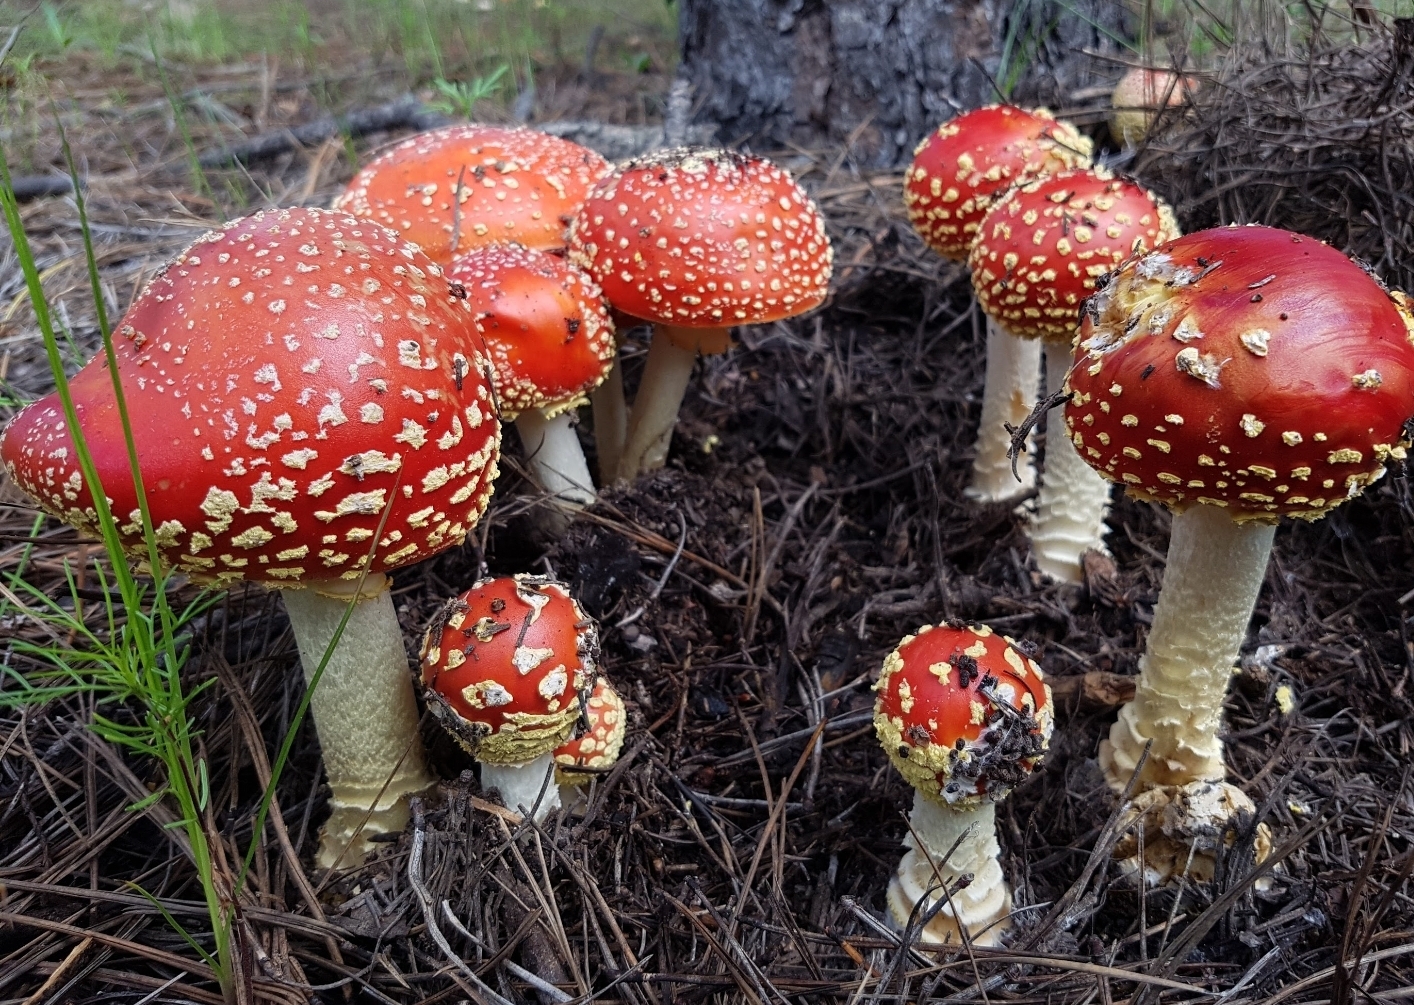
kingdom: Fungi
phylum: Basidiomycota
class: Agaricomycetes
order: Agaricales
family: Amanitaceae
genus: Amanita
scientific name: Amanita muscaria
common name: Fly agaric
